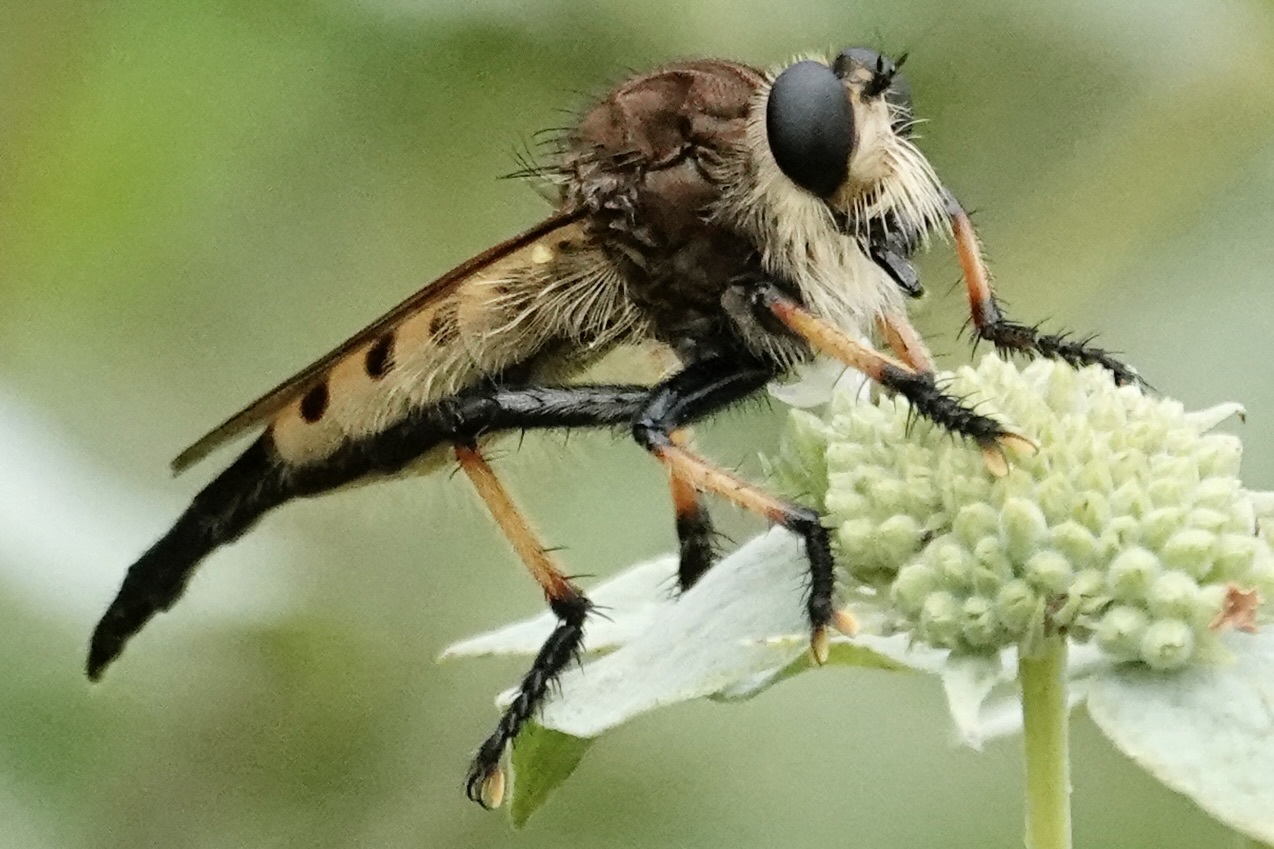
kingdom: Animalia
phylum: Arthropoda
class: Insecta
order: Diptera
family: Asilidae
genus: Promachus
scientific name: Promachus rufipes
